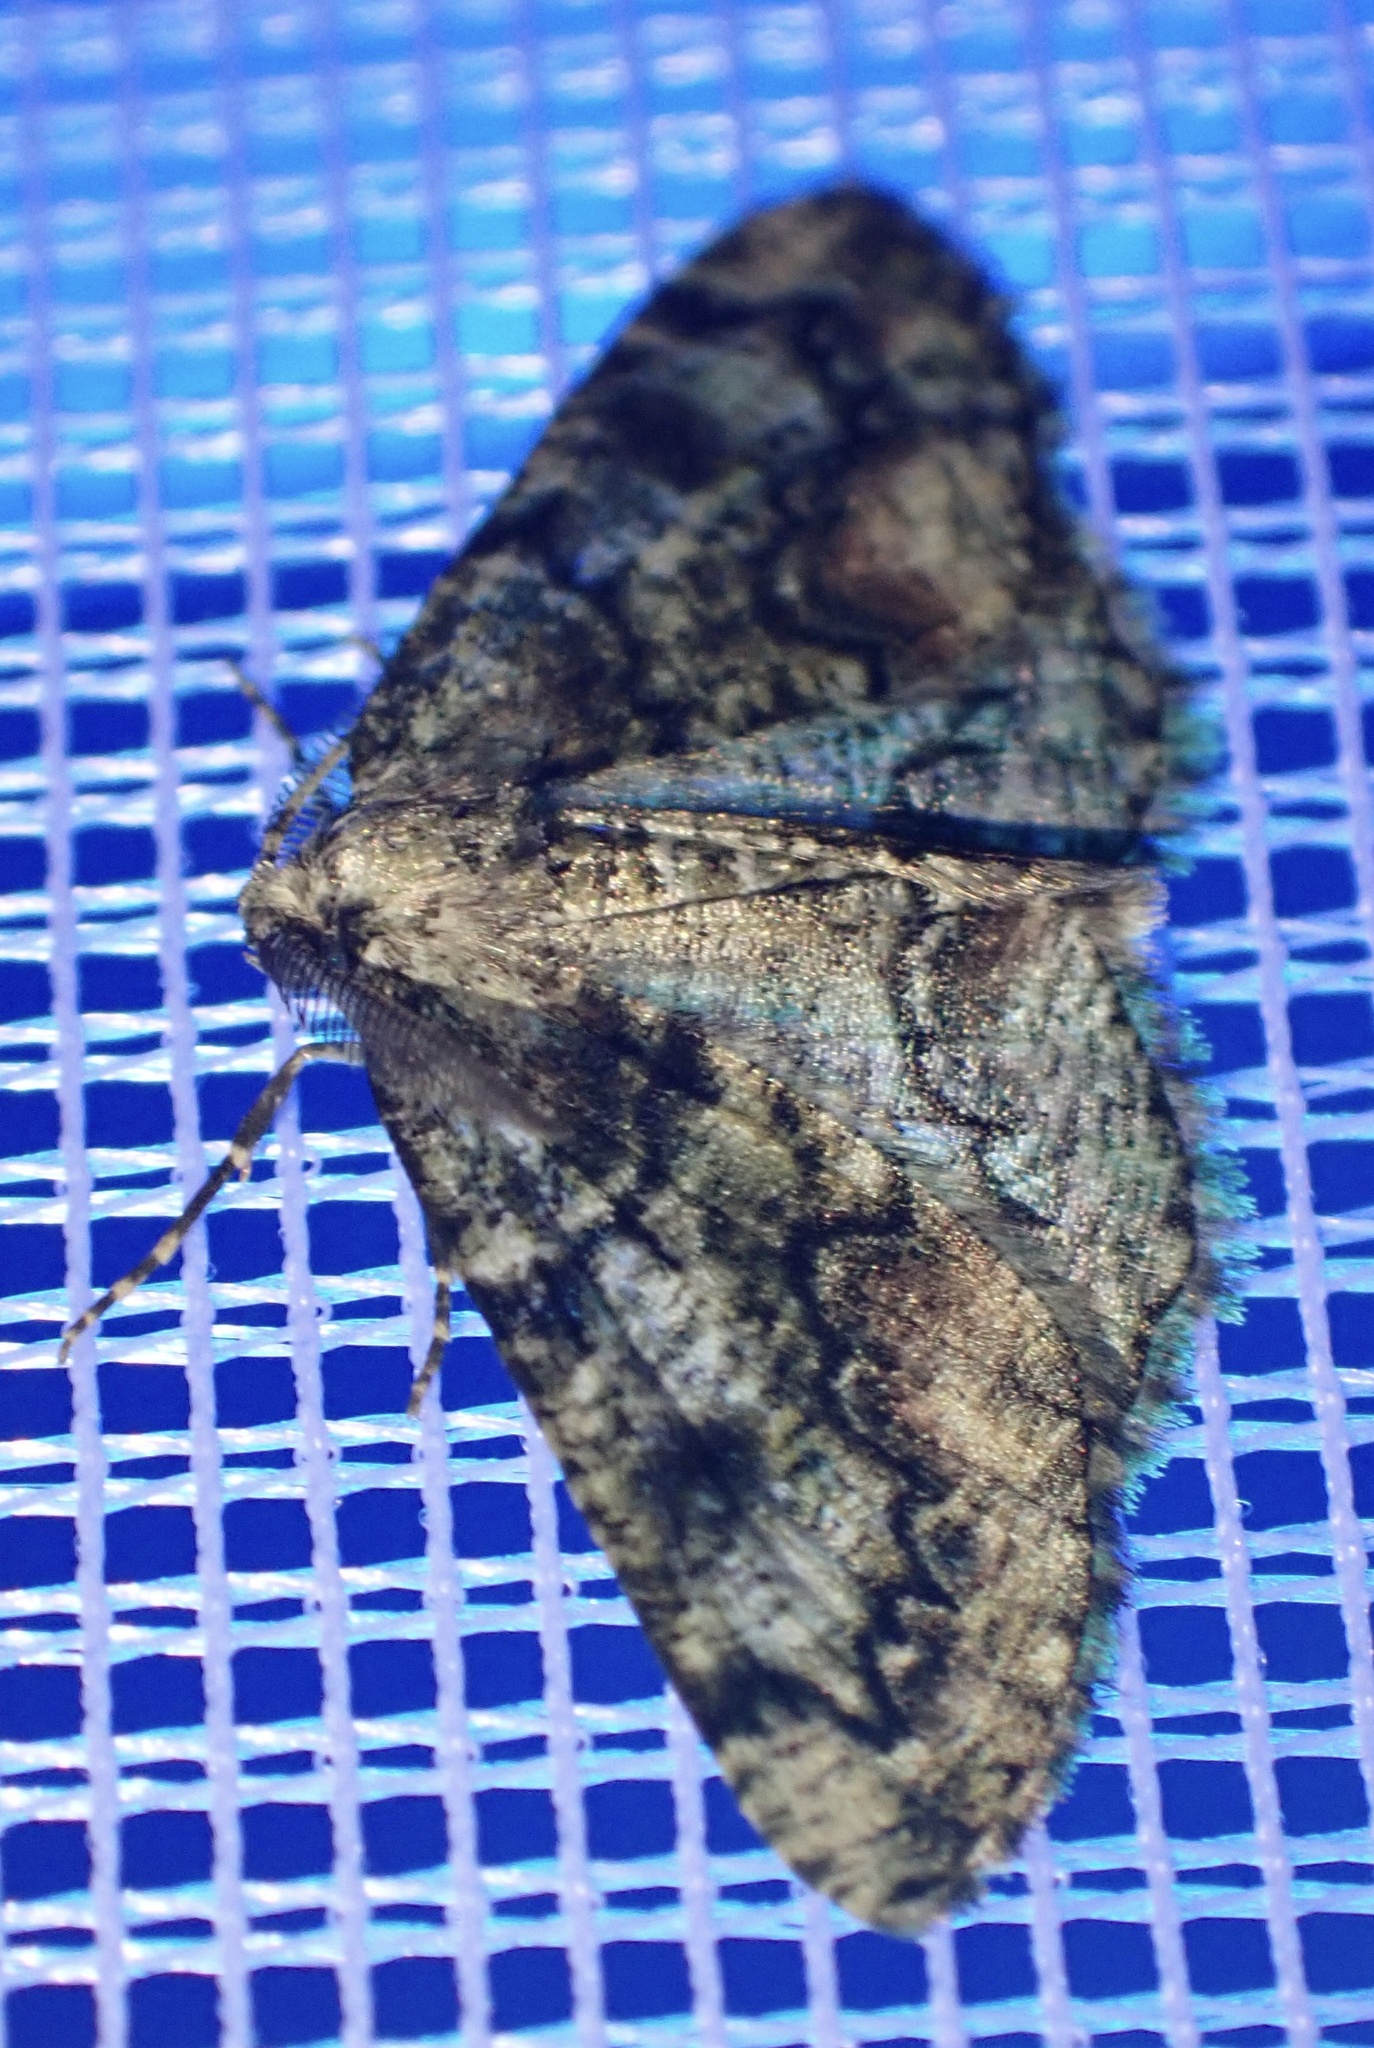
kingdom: Animalia
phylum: Arthropoda
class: Insecta
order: Lepidoptera
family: Geometridae
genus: Cleorodes
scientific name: Cleorodes lichenaria
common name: Brussels lace
